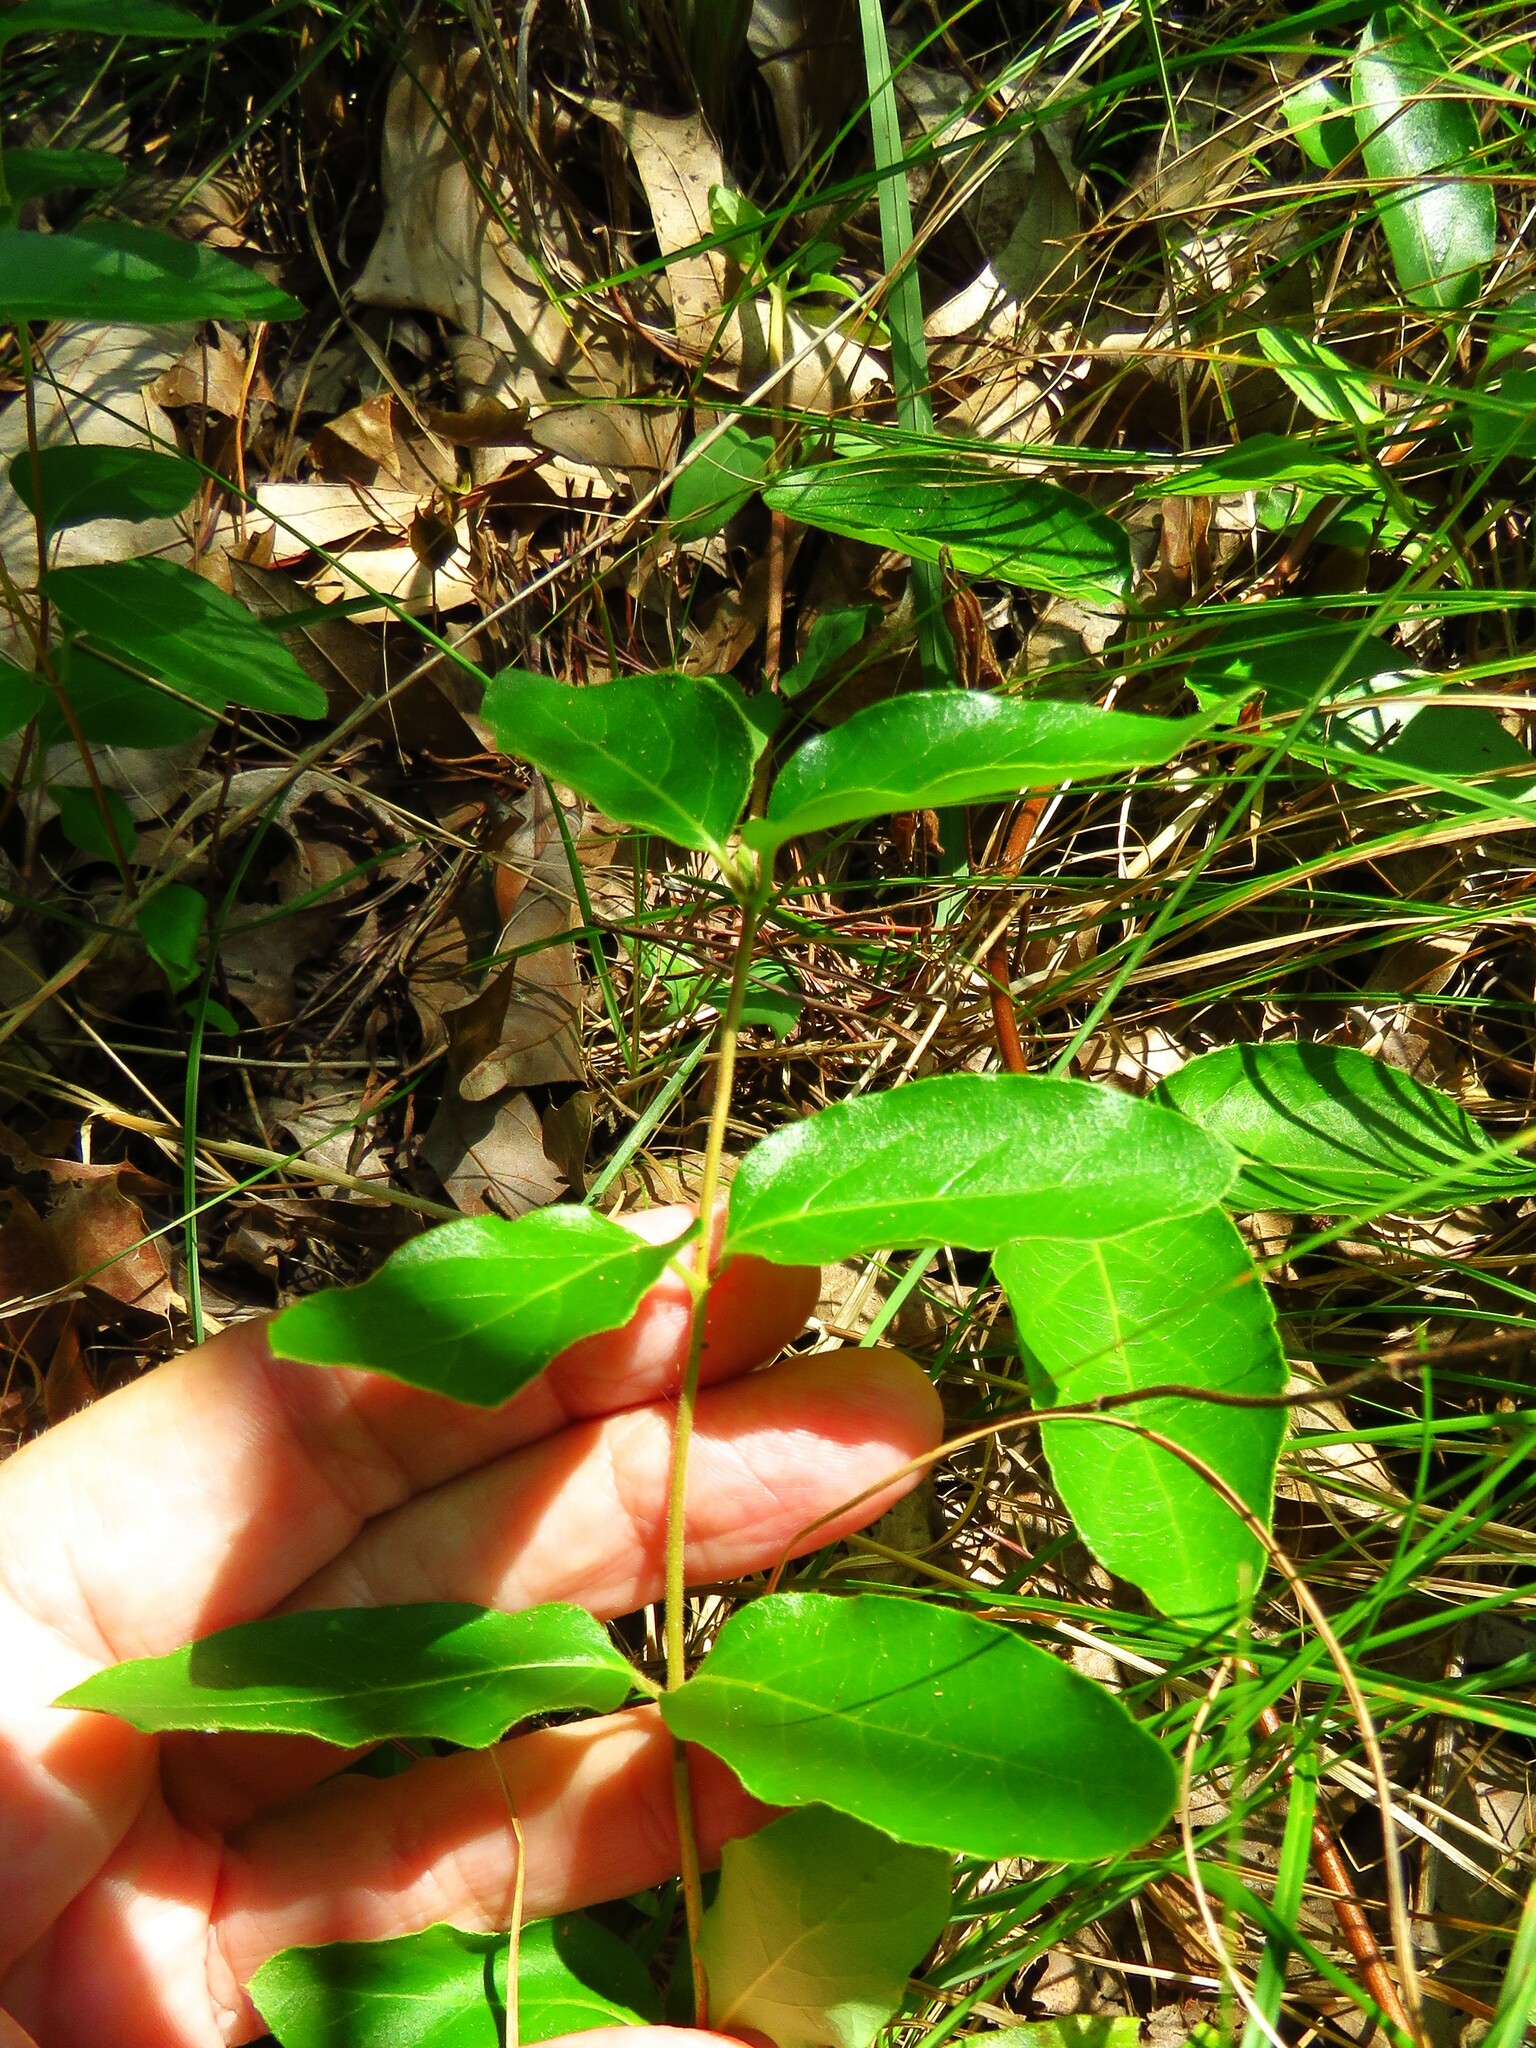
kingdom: Plantae
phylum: Tracheophyta
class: Magnoliopsida
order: Dipsacales
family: Caprifoliaceae
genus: Lonicera
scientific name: Lonicera japonica
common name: Japanese honeysuckle
